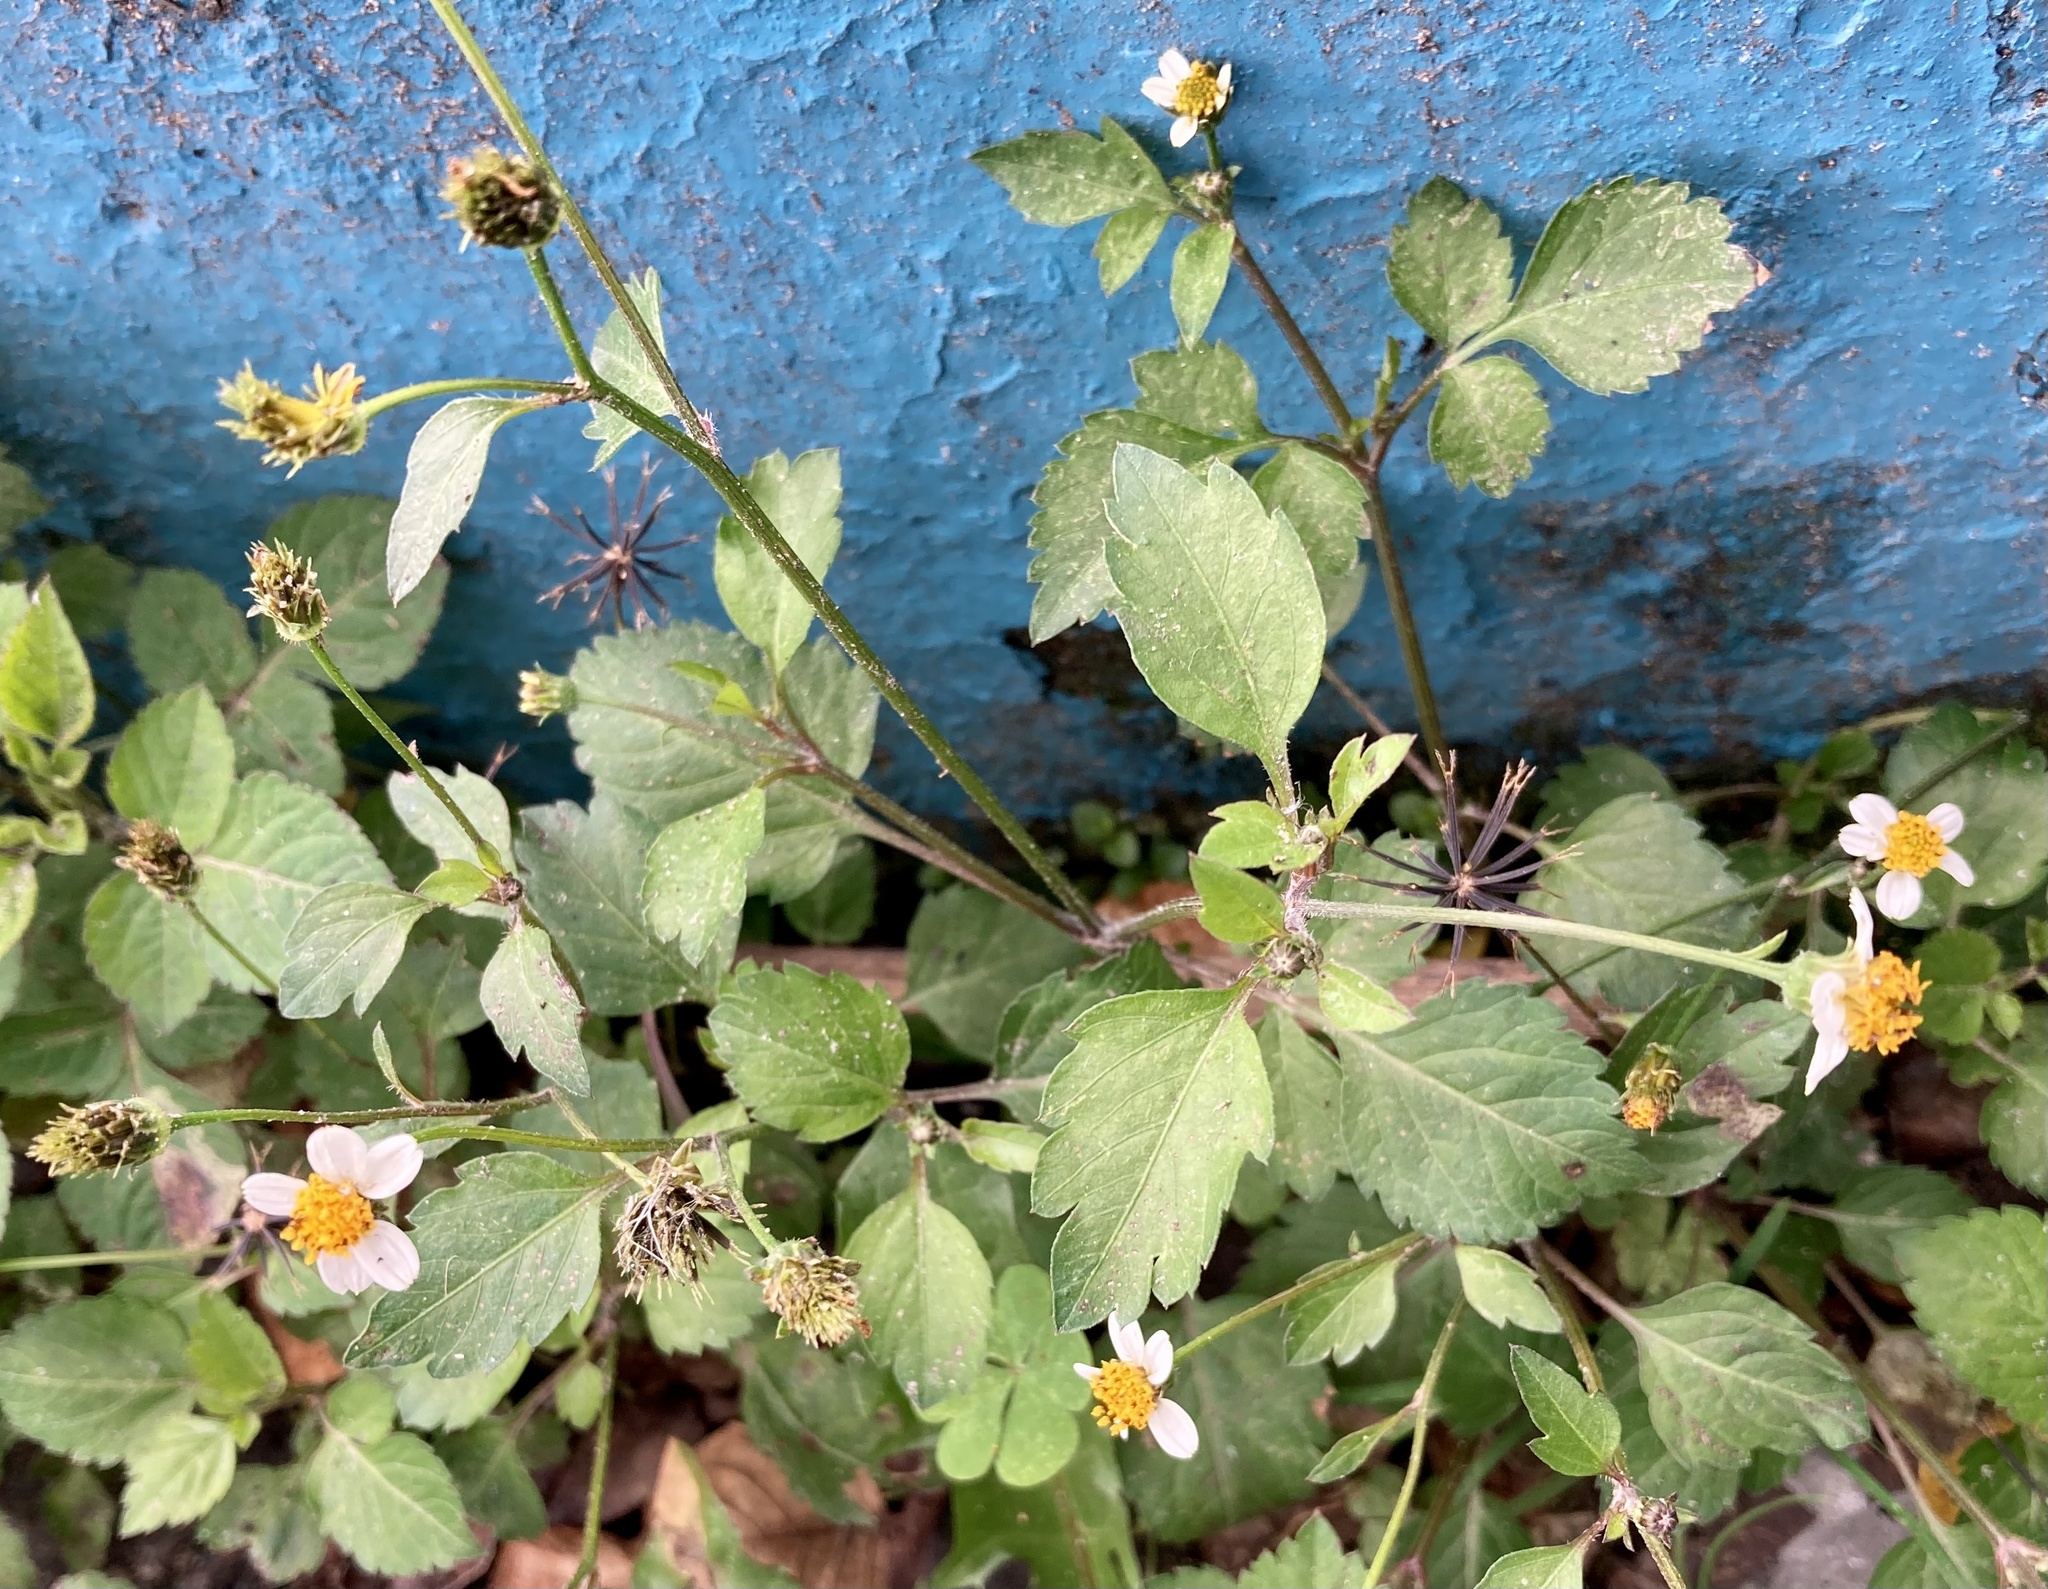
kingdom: Plantae
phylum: Tracheophyta
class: Magnoliopsida
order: Asterales
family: Asteraceae
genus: Bidens
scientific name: Bidens pilosa
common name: Black-jack
